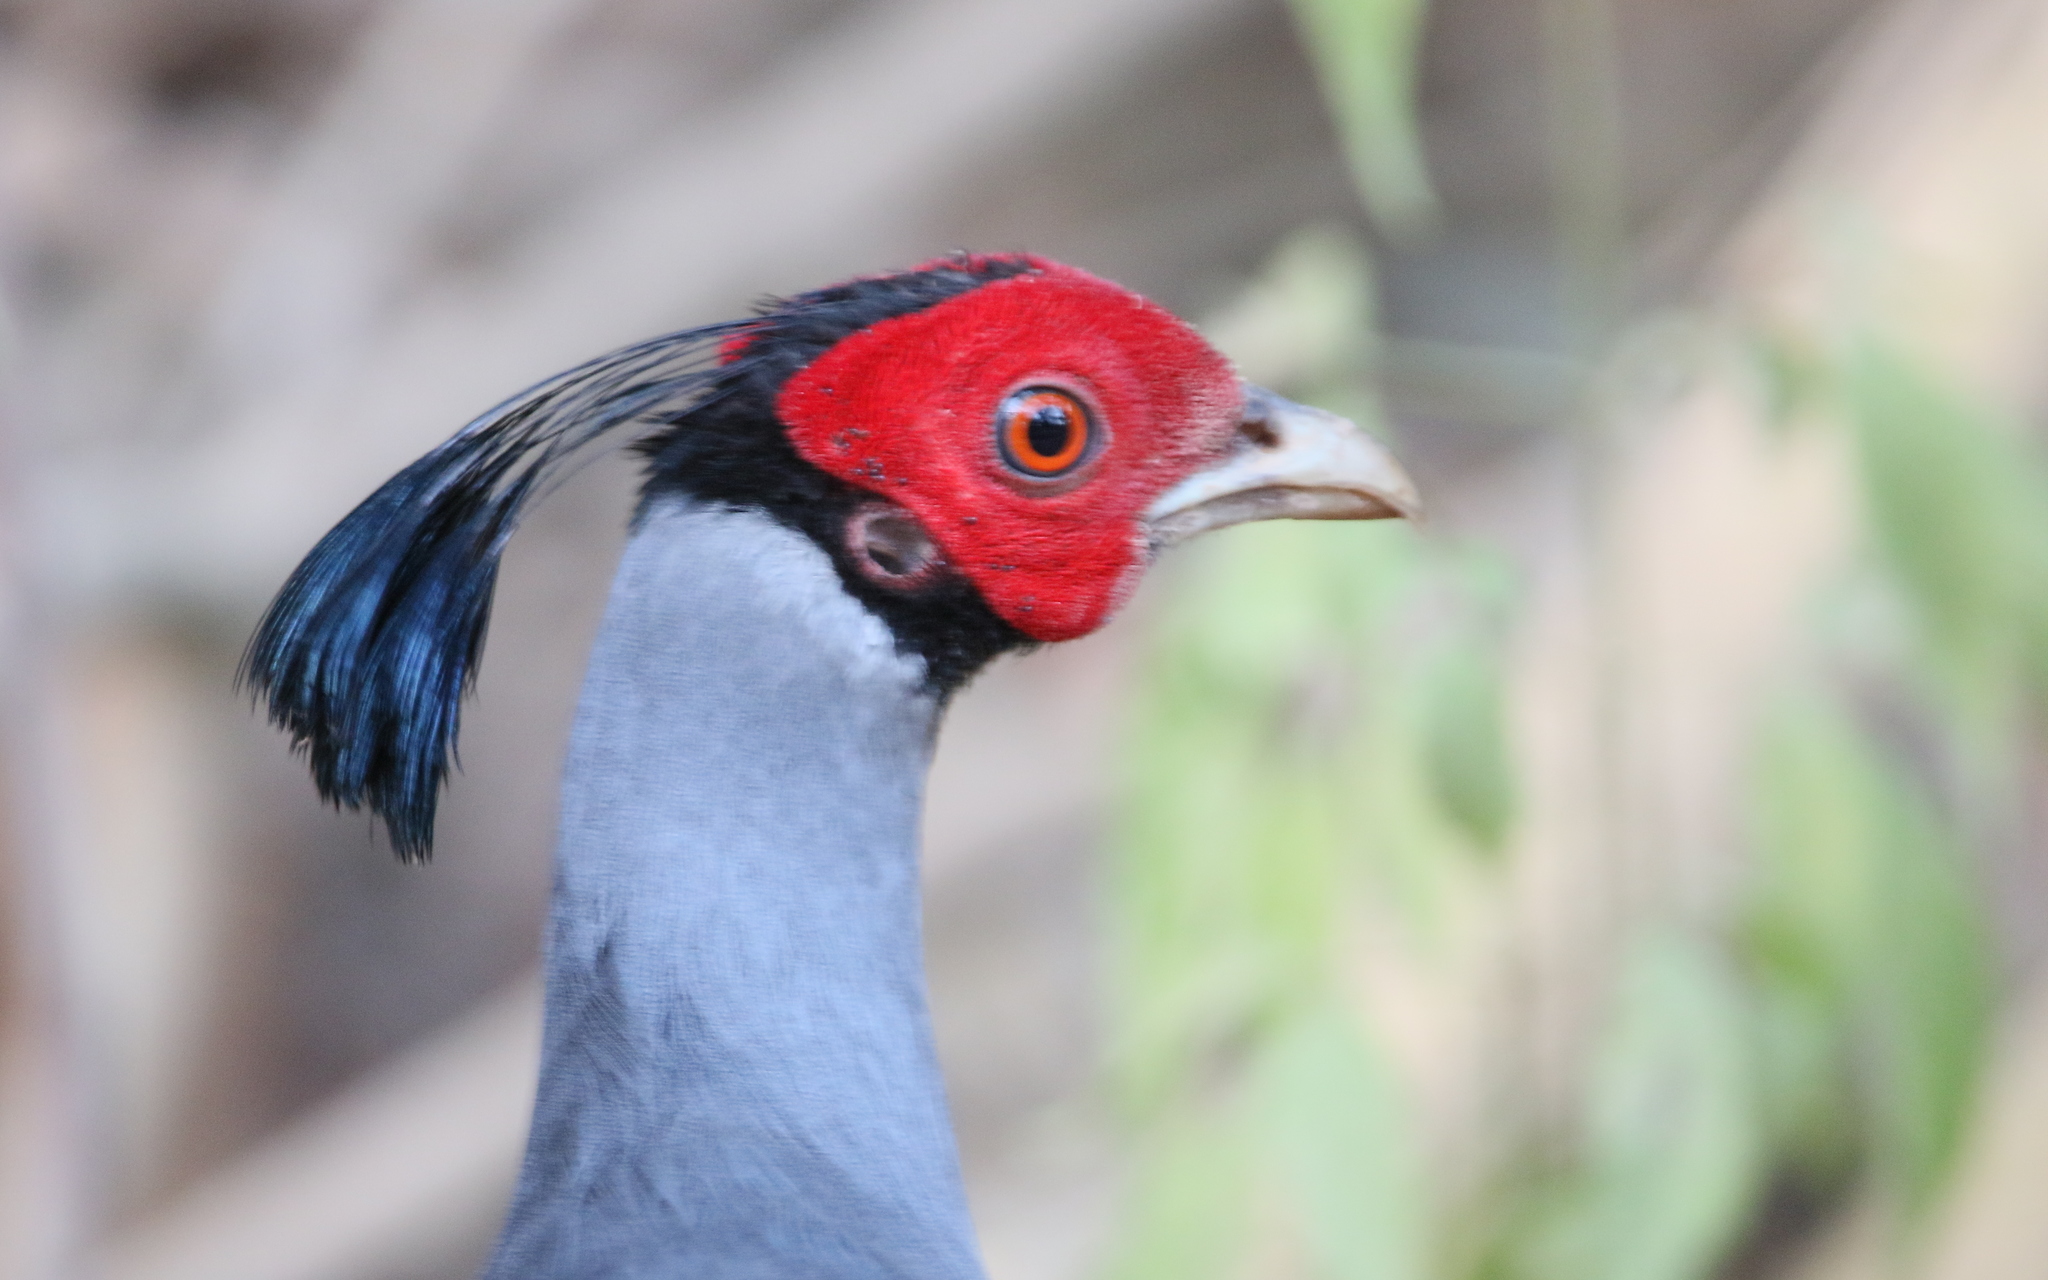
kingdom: Animalia
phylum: Chordata
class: Aves
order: Galliformes
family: Phasianidae
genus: Lophura
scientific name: Lophura diardi
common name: Siamese fireback
